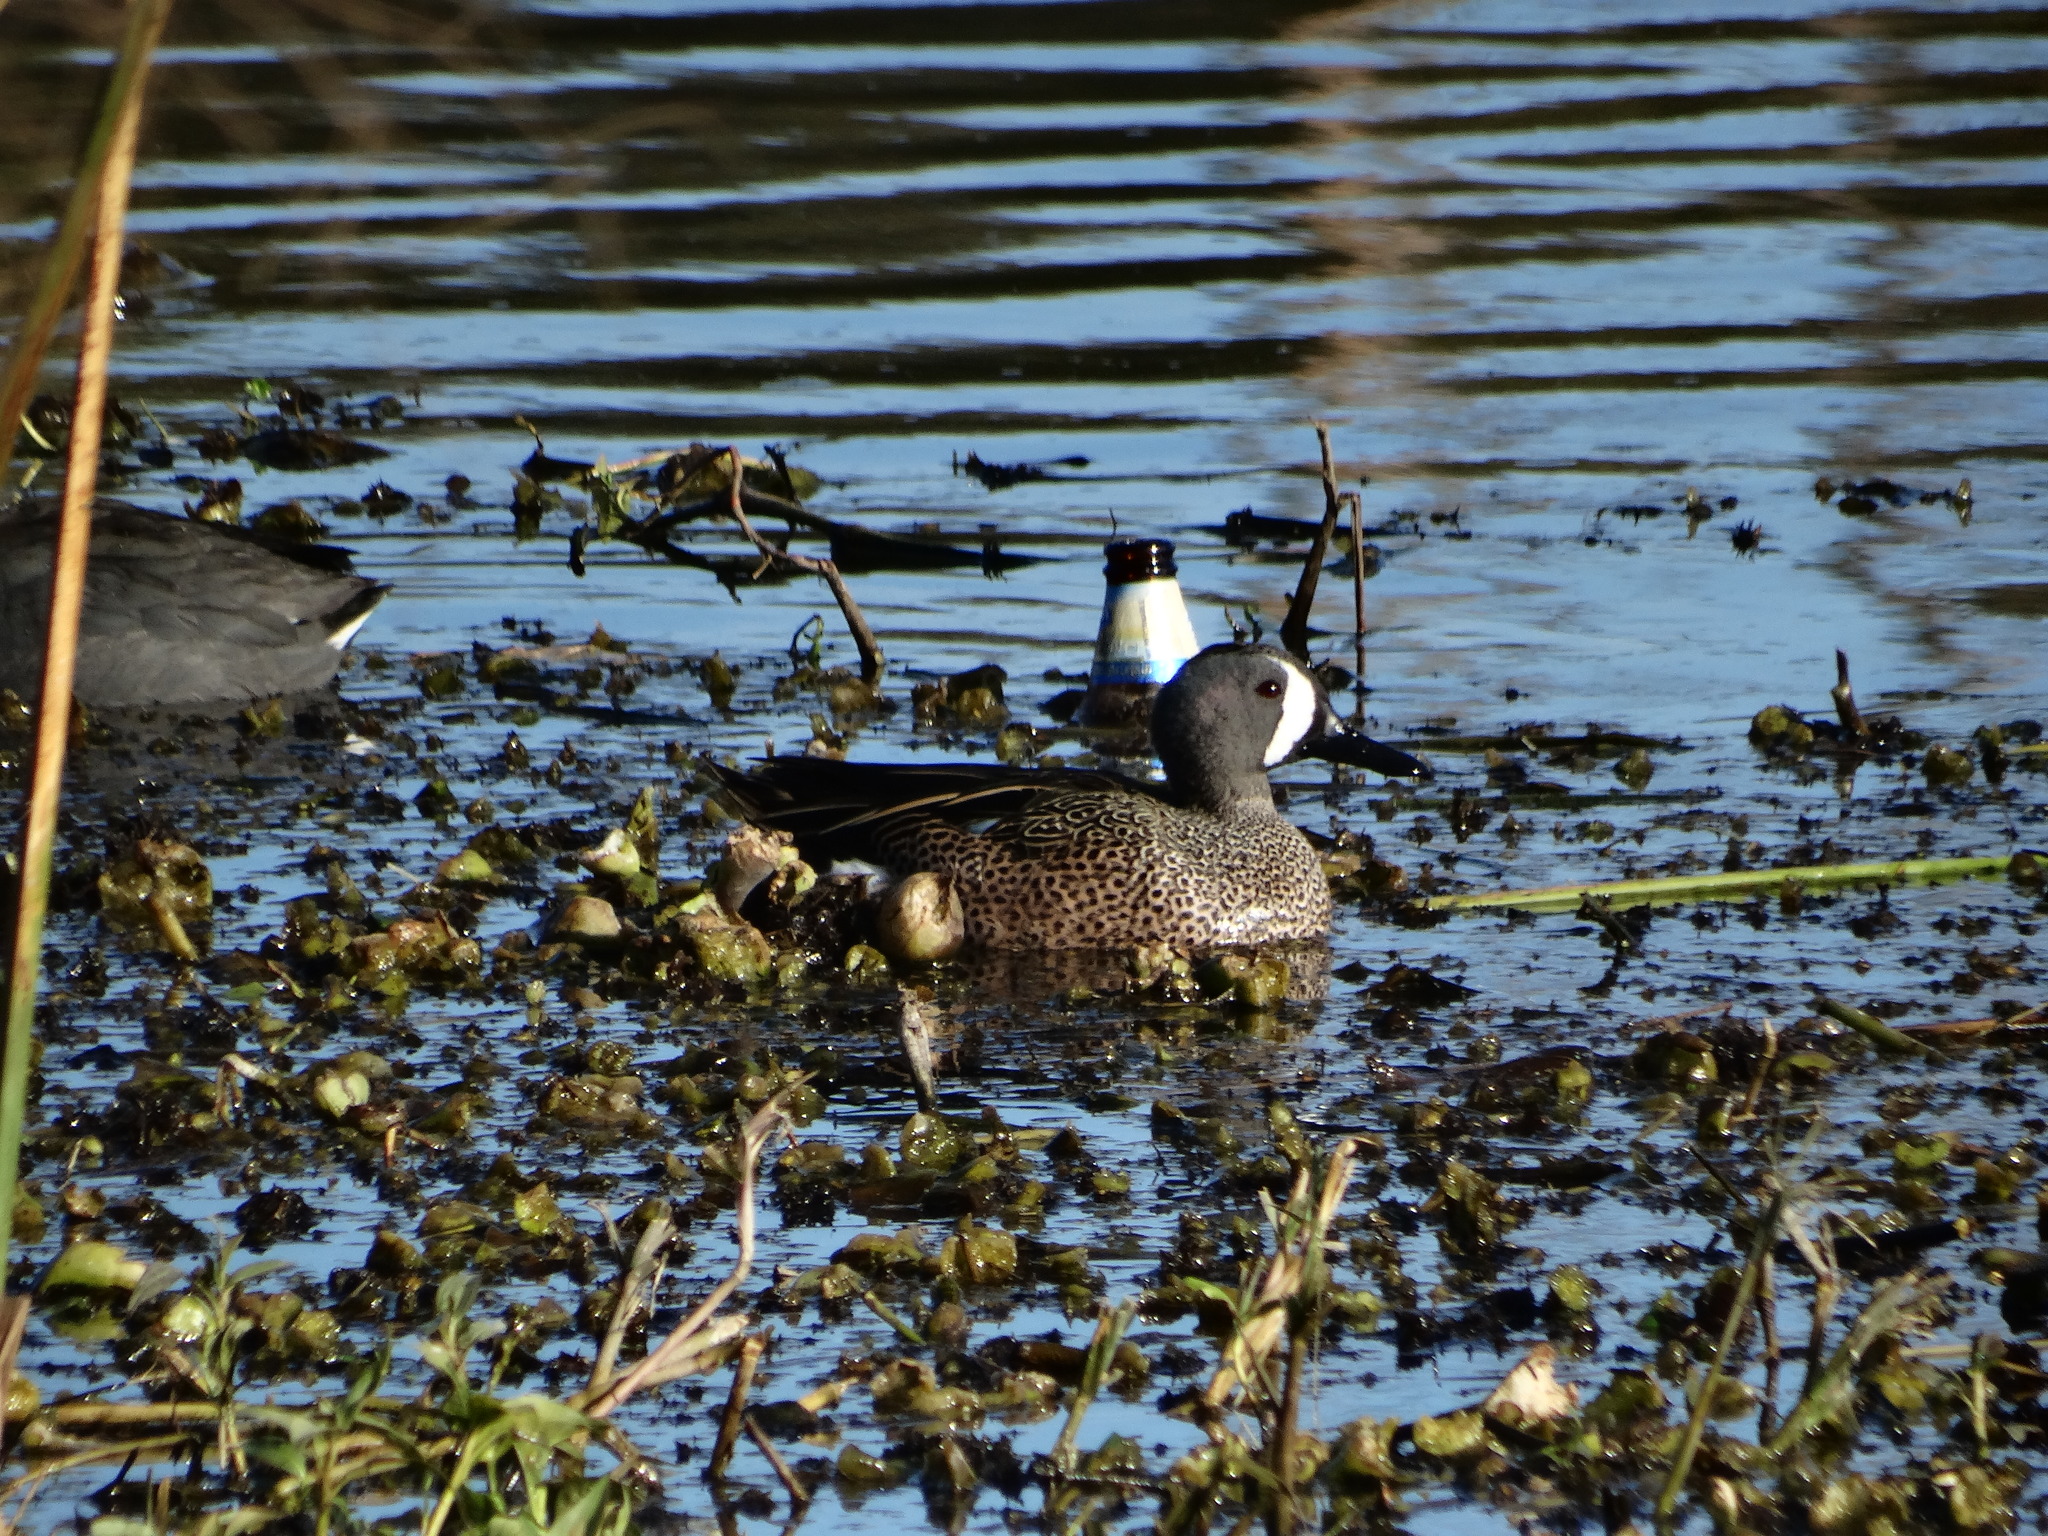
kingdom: Animalia
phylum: Chordata
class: Aves
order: Anseriformes
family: Anatidae
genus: Spatula
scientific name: Spatula discors
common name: Blue-winged teal
